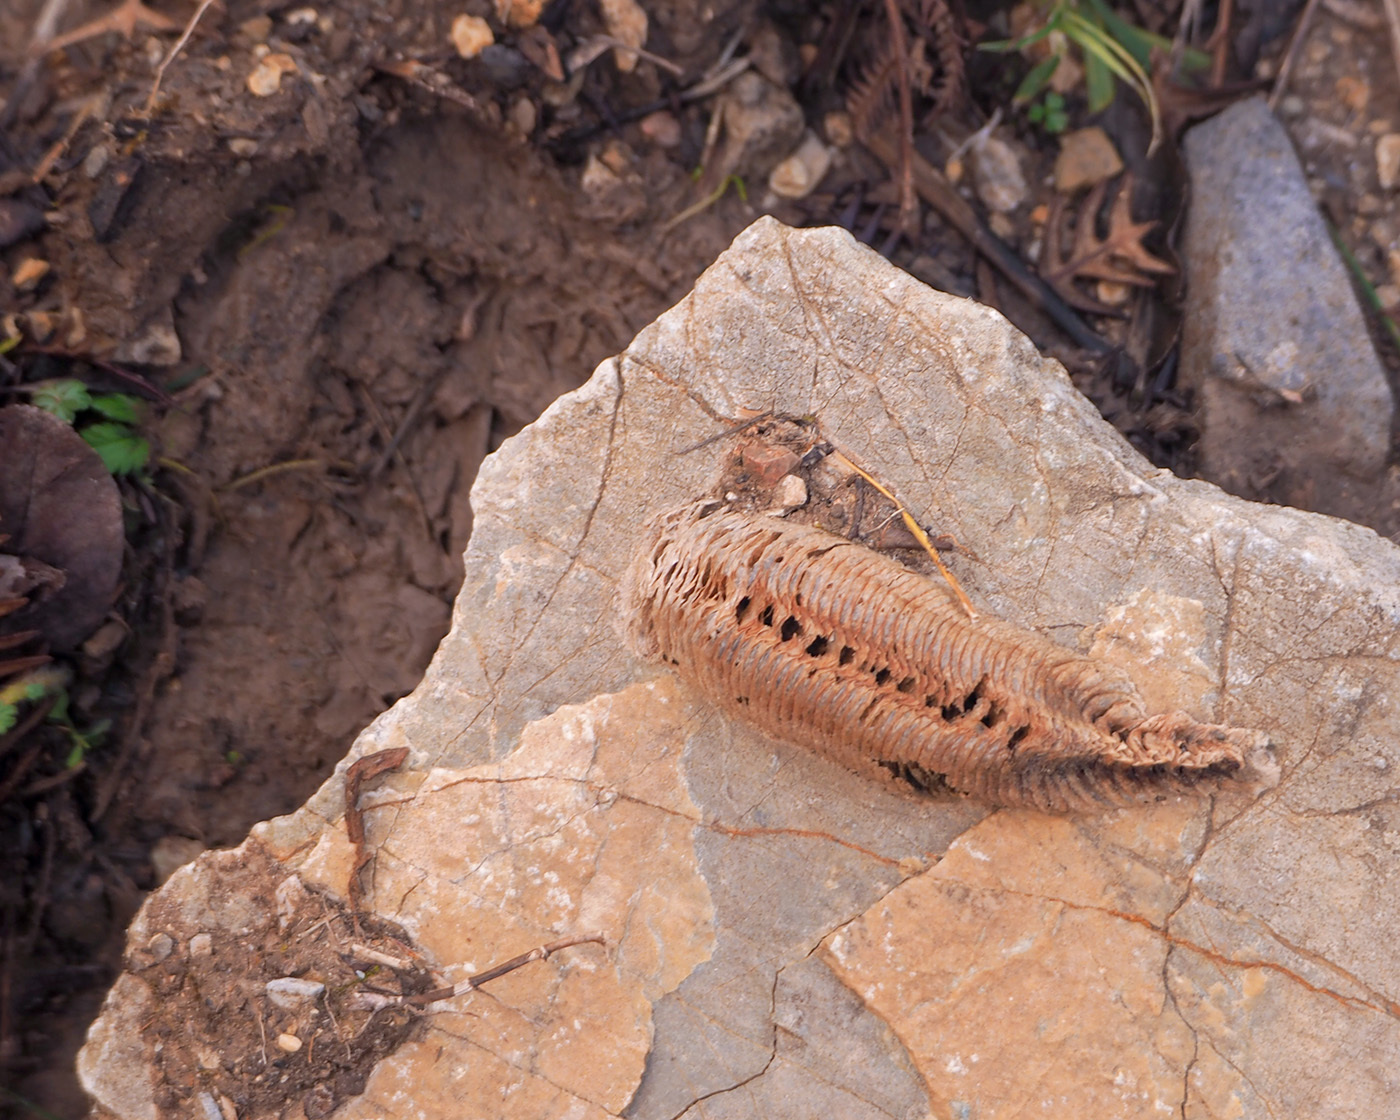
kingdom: Animalia
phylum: Arthropoda
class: Insecta
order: Mantodea
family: Mantidae
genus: Mantis
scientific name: Mantis religiosa
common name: Praying mantis
